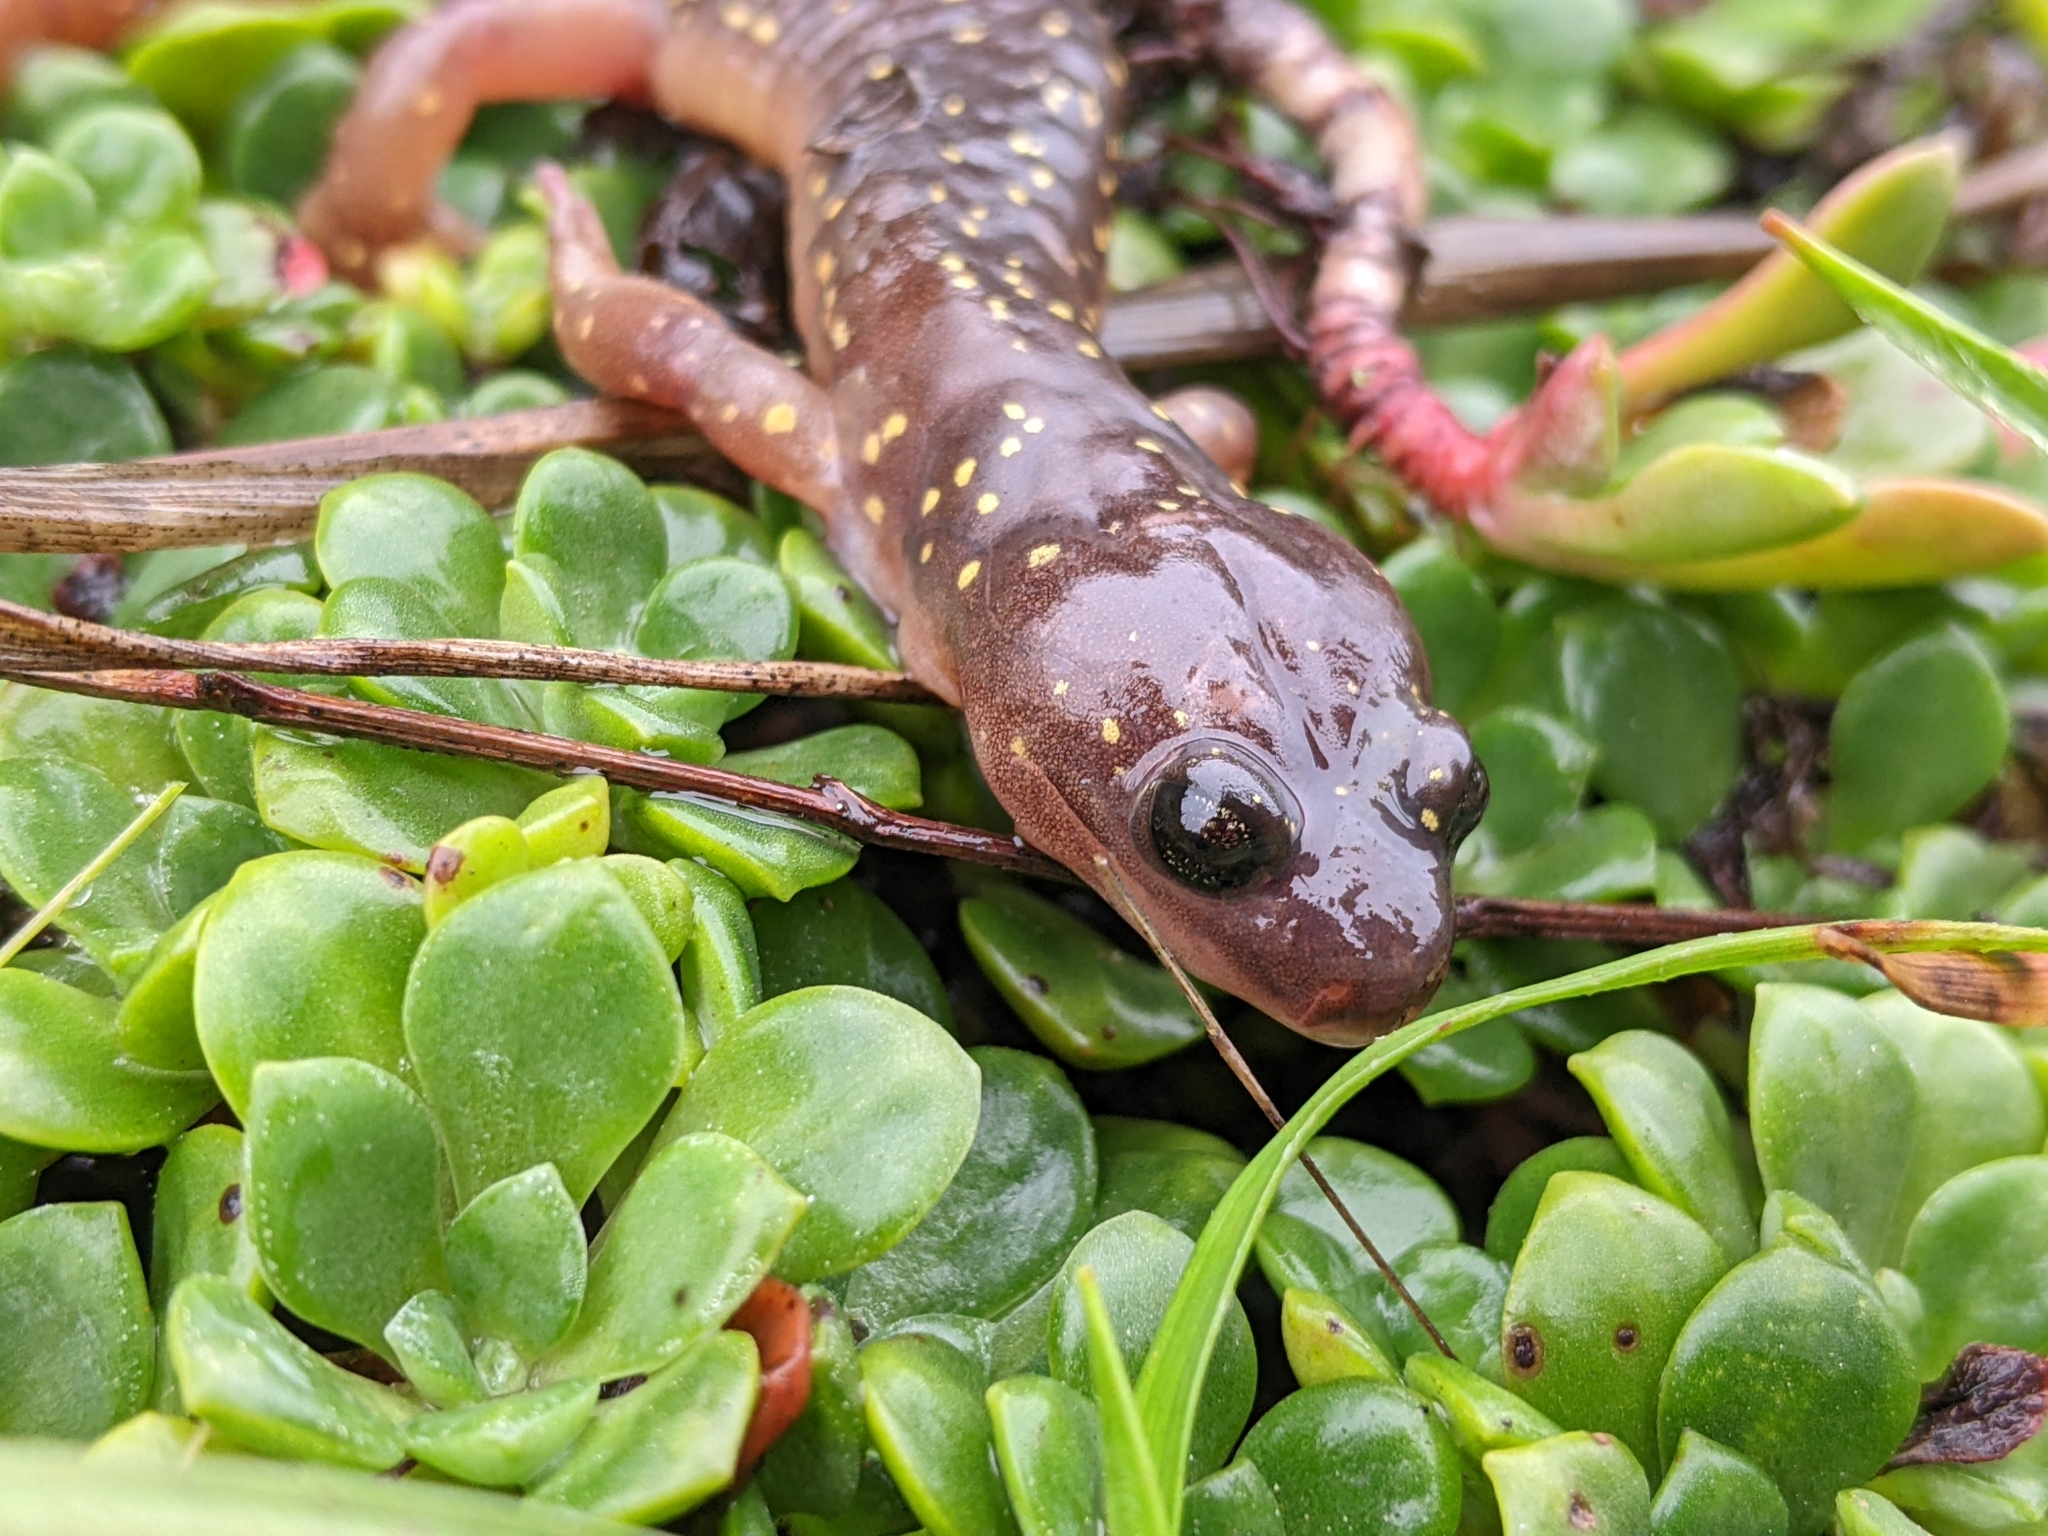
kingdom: Animalia
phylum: Chordata
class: Amphibia
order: Caudata
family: Plethodontidae
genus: Aneides
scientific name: Aneides lugubris
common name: Arboreal salamander
